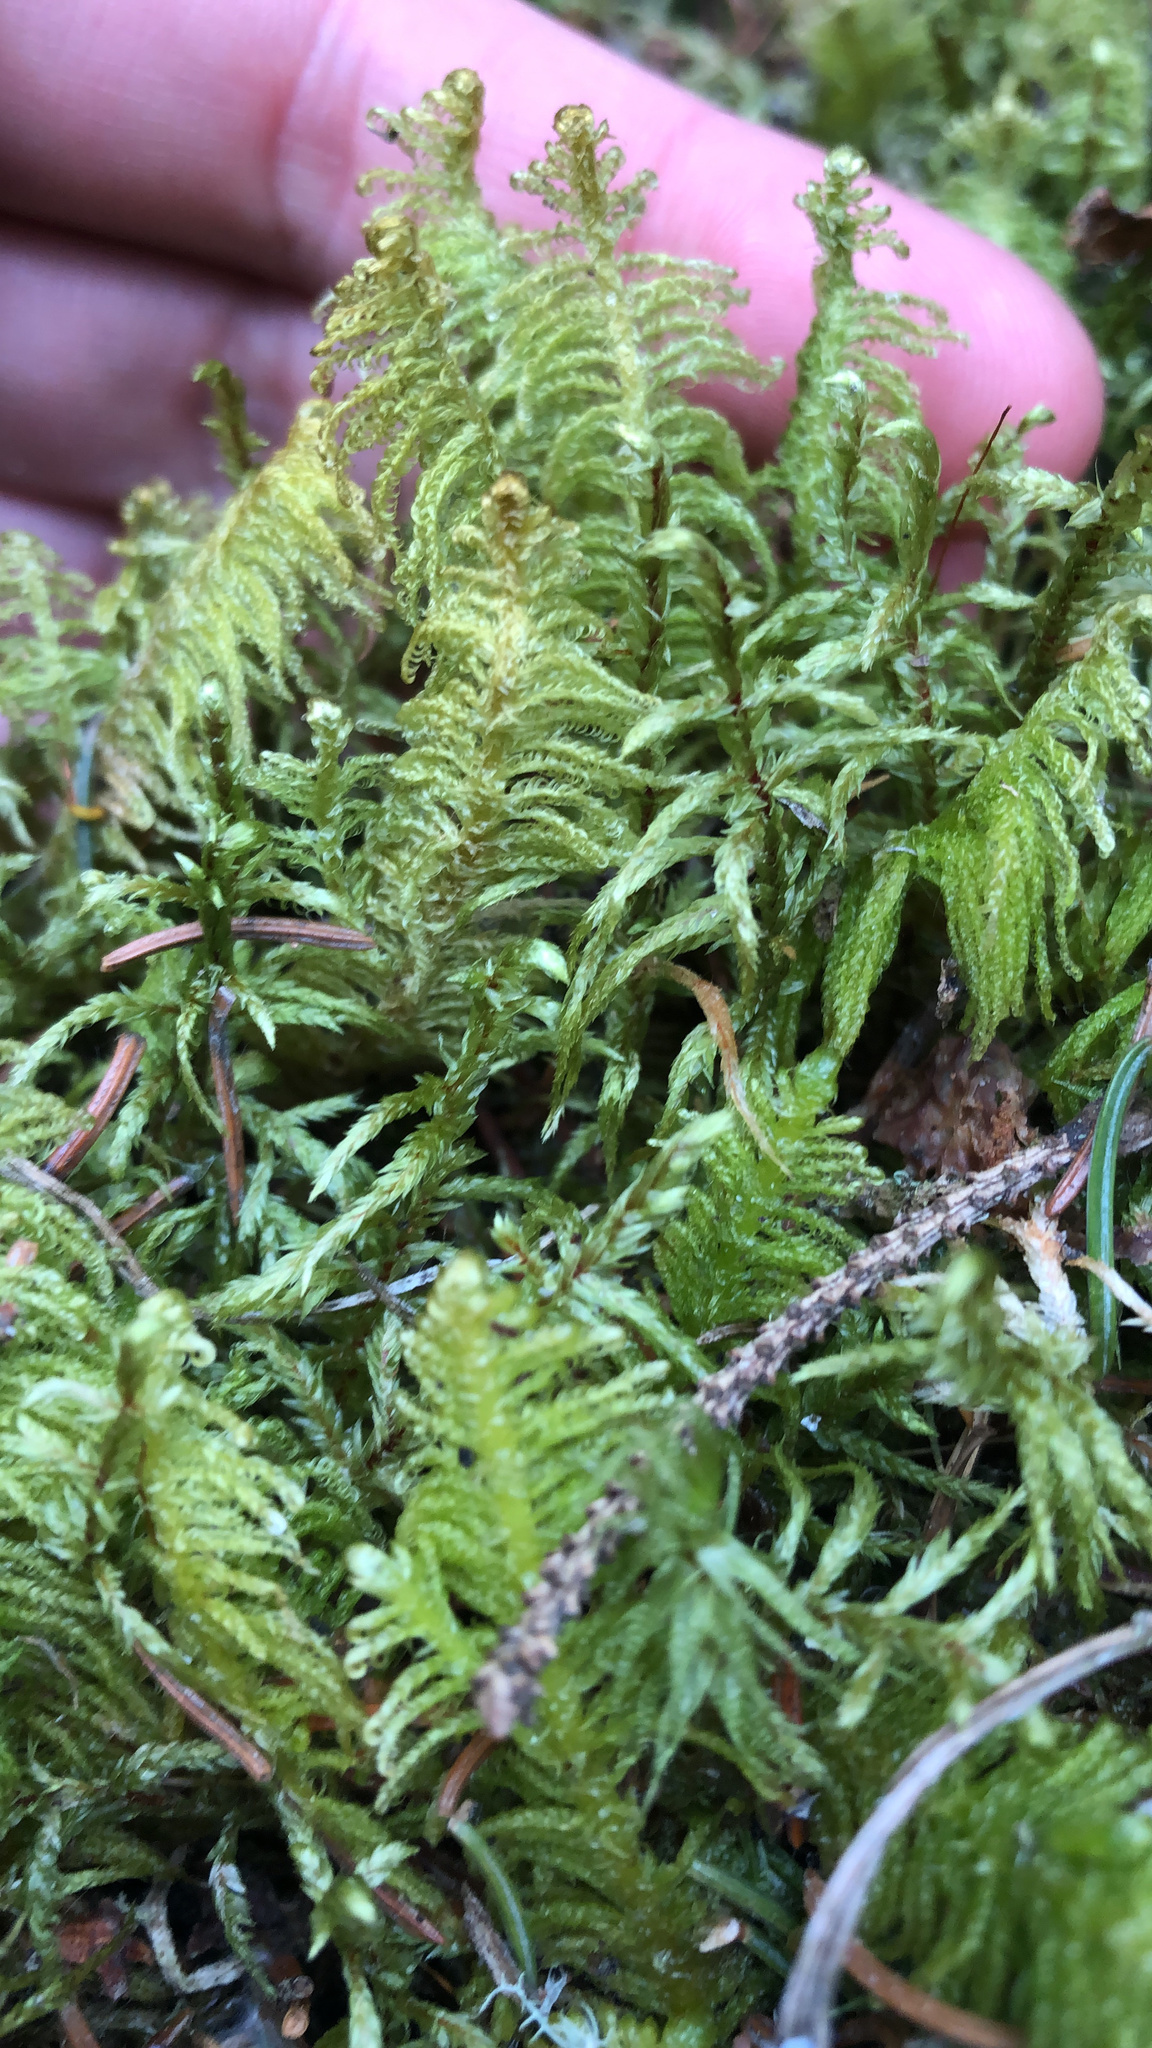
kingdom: Plantae
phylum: Bryophyta
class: Bryopsida
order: Hypnales
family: Pylaisiaceae
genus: Ptilium
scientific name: Ptilium crista-castrensis
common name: Knight's plume moss
